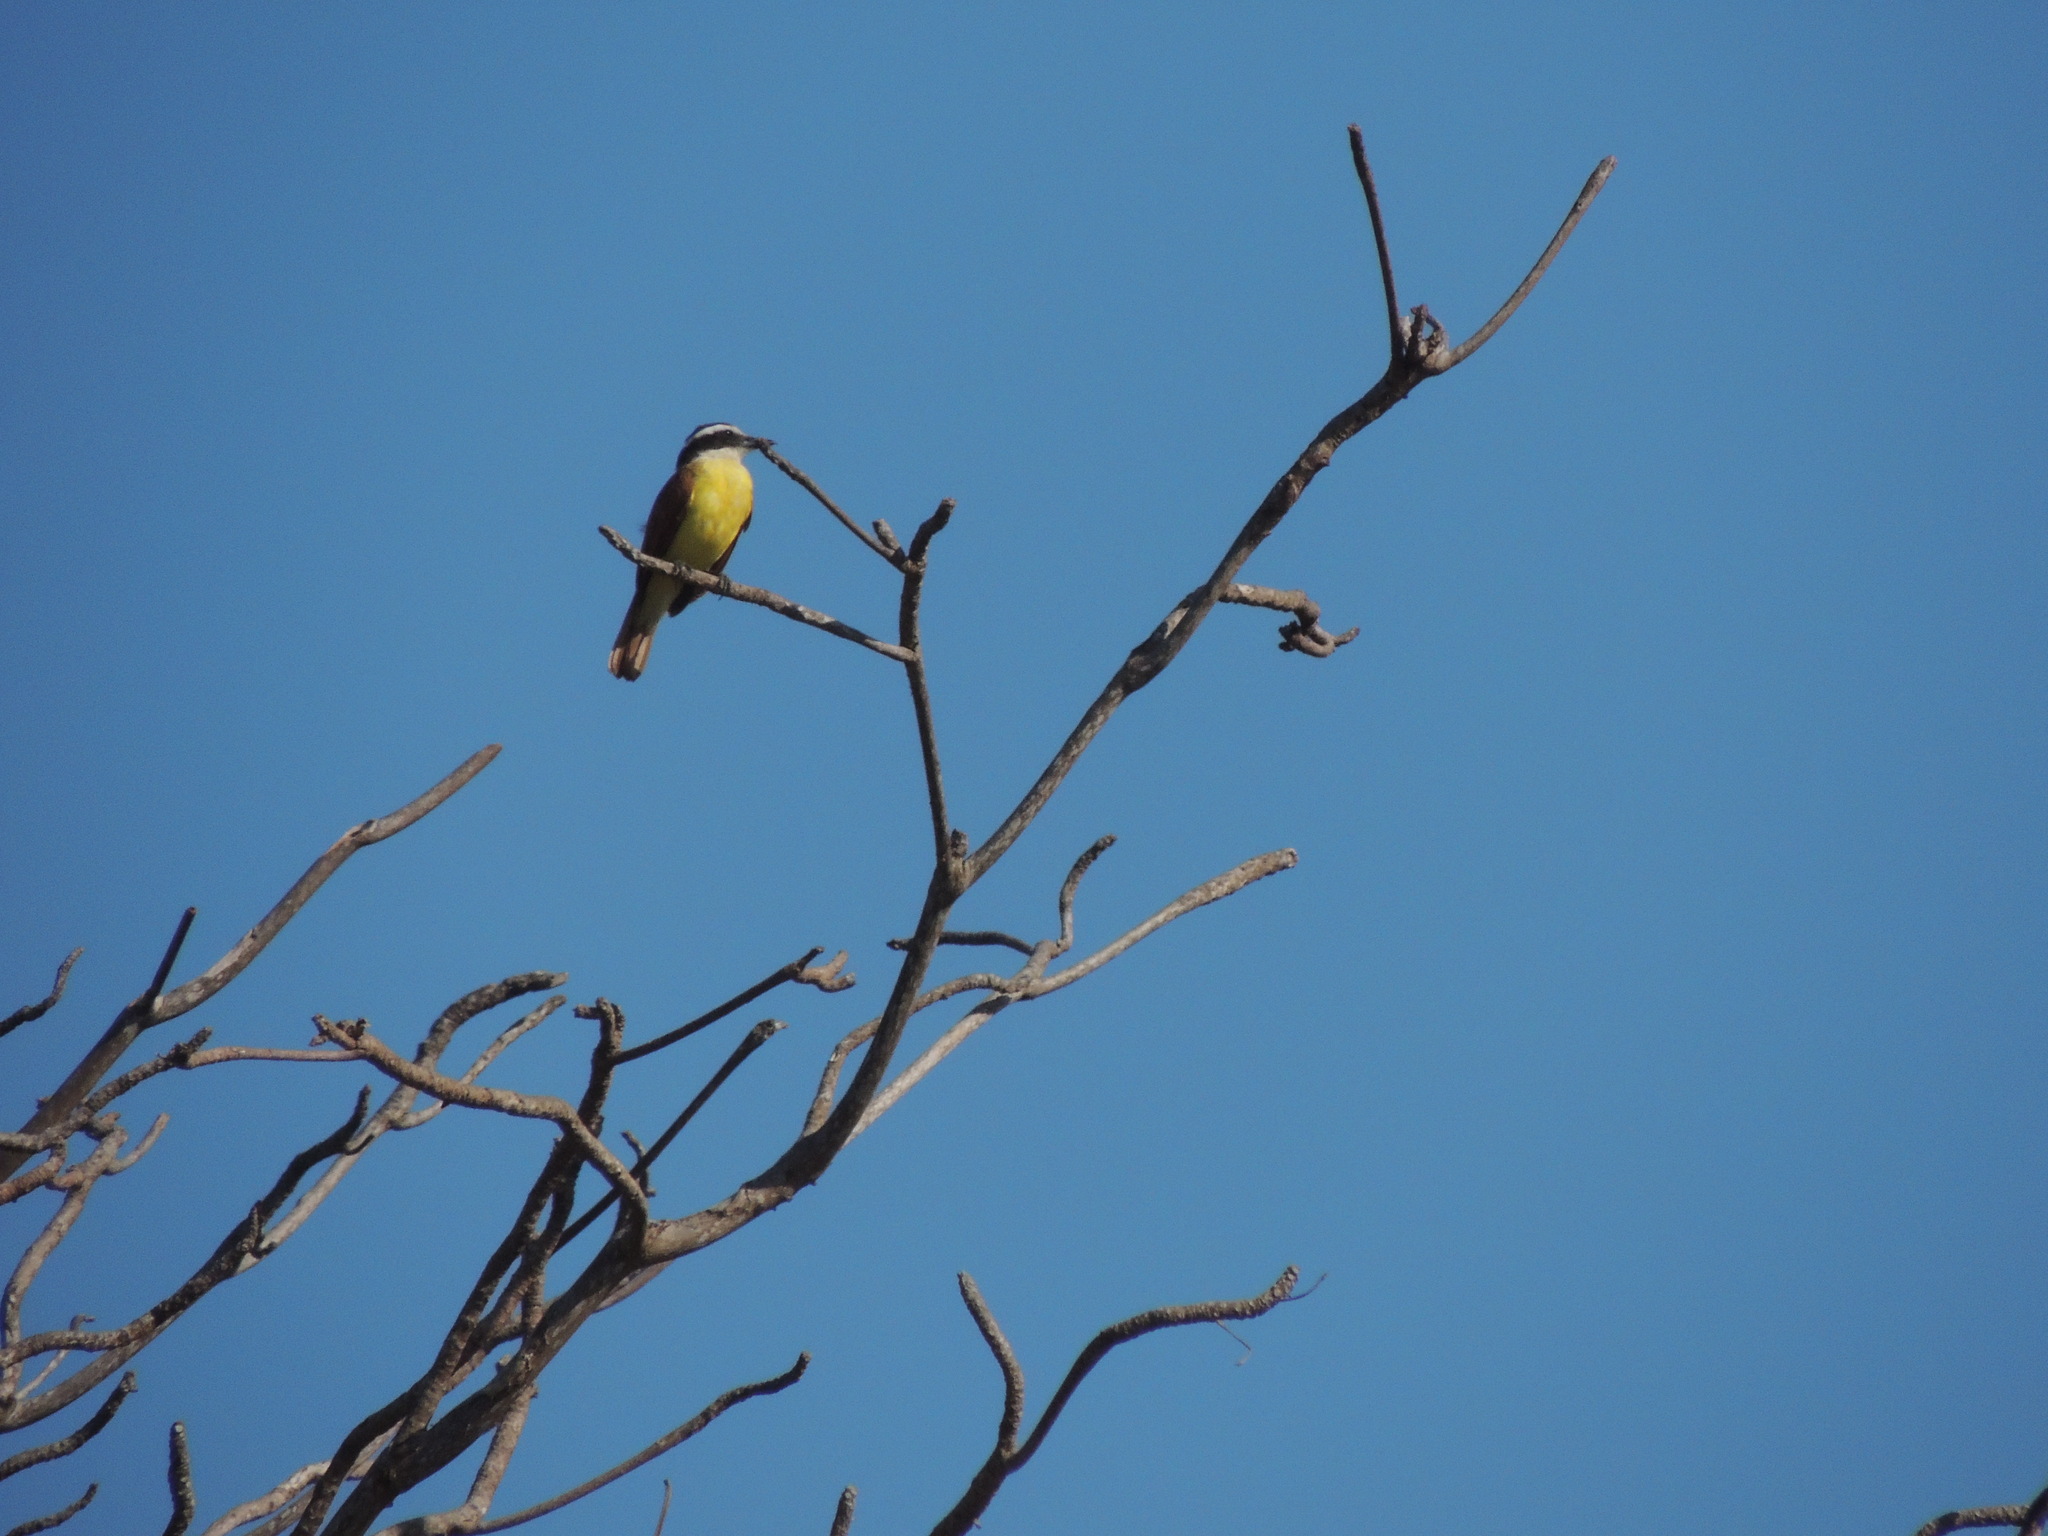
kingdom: Animalia
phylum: Chordata
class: Aves
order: Passeriformes
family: Tyrannidae
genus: Pitangus
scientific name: Pitangus sulphuratus
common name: Great kiskadee
